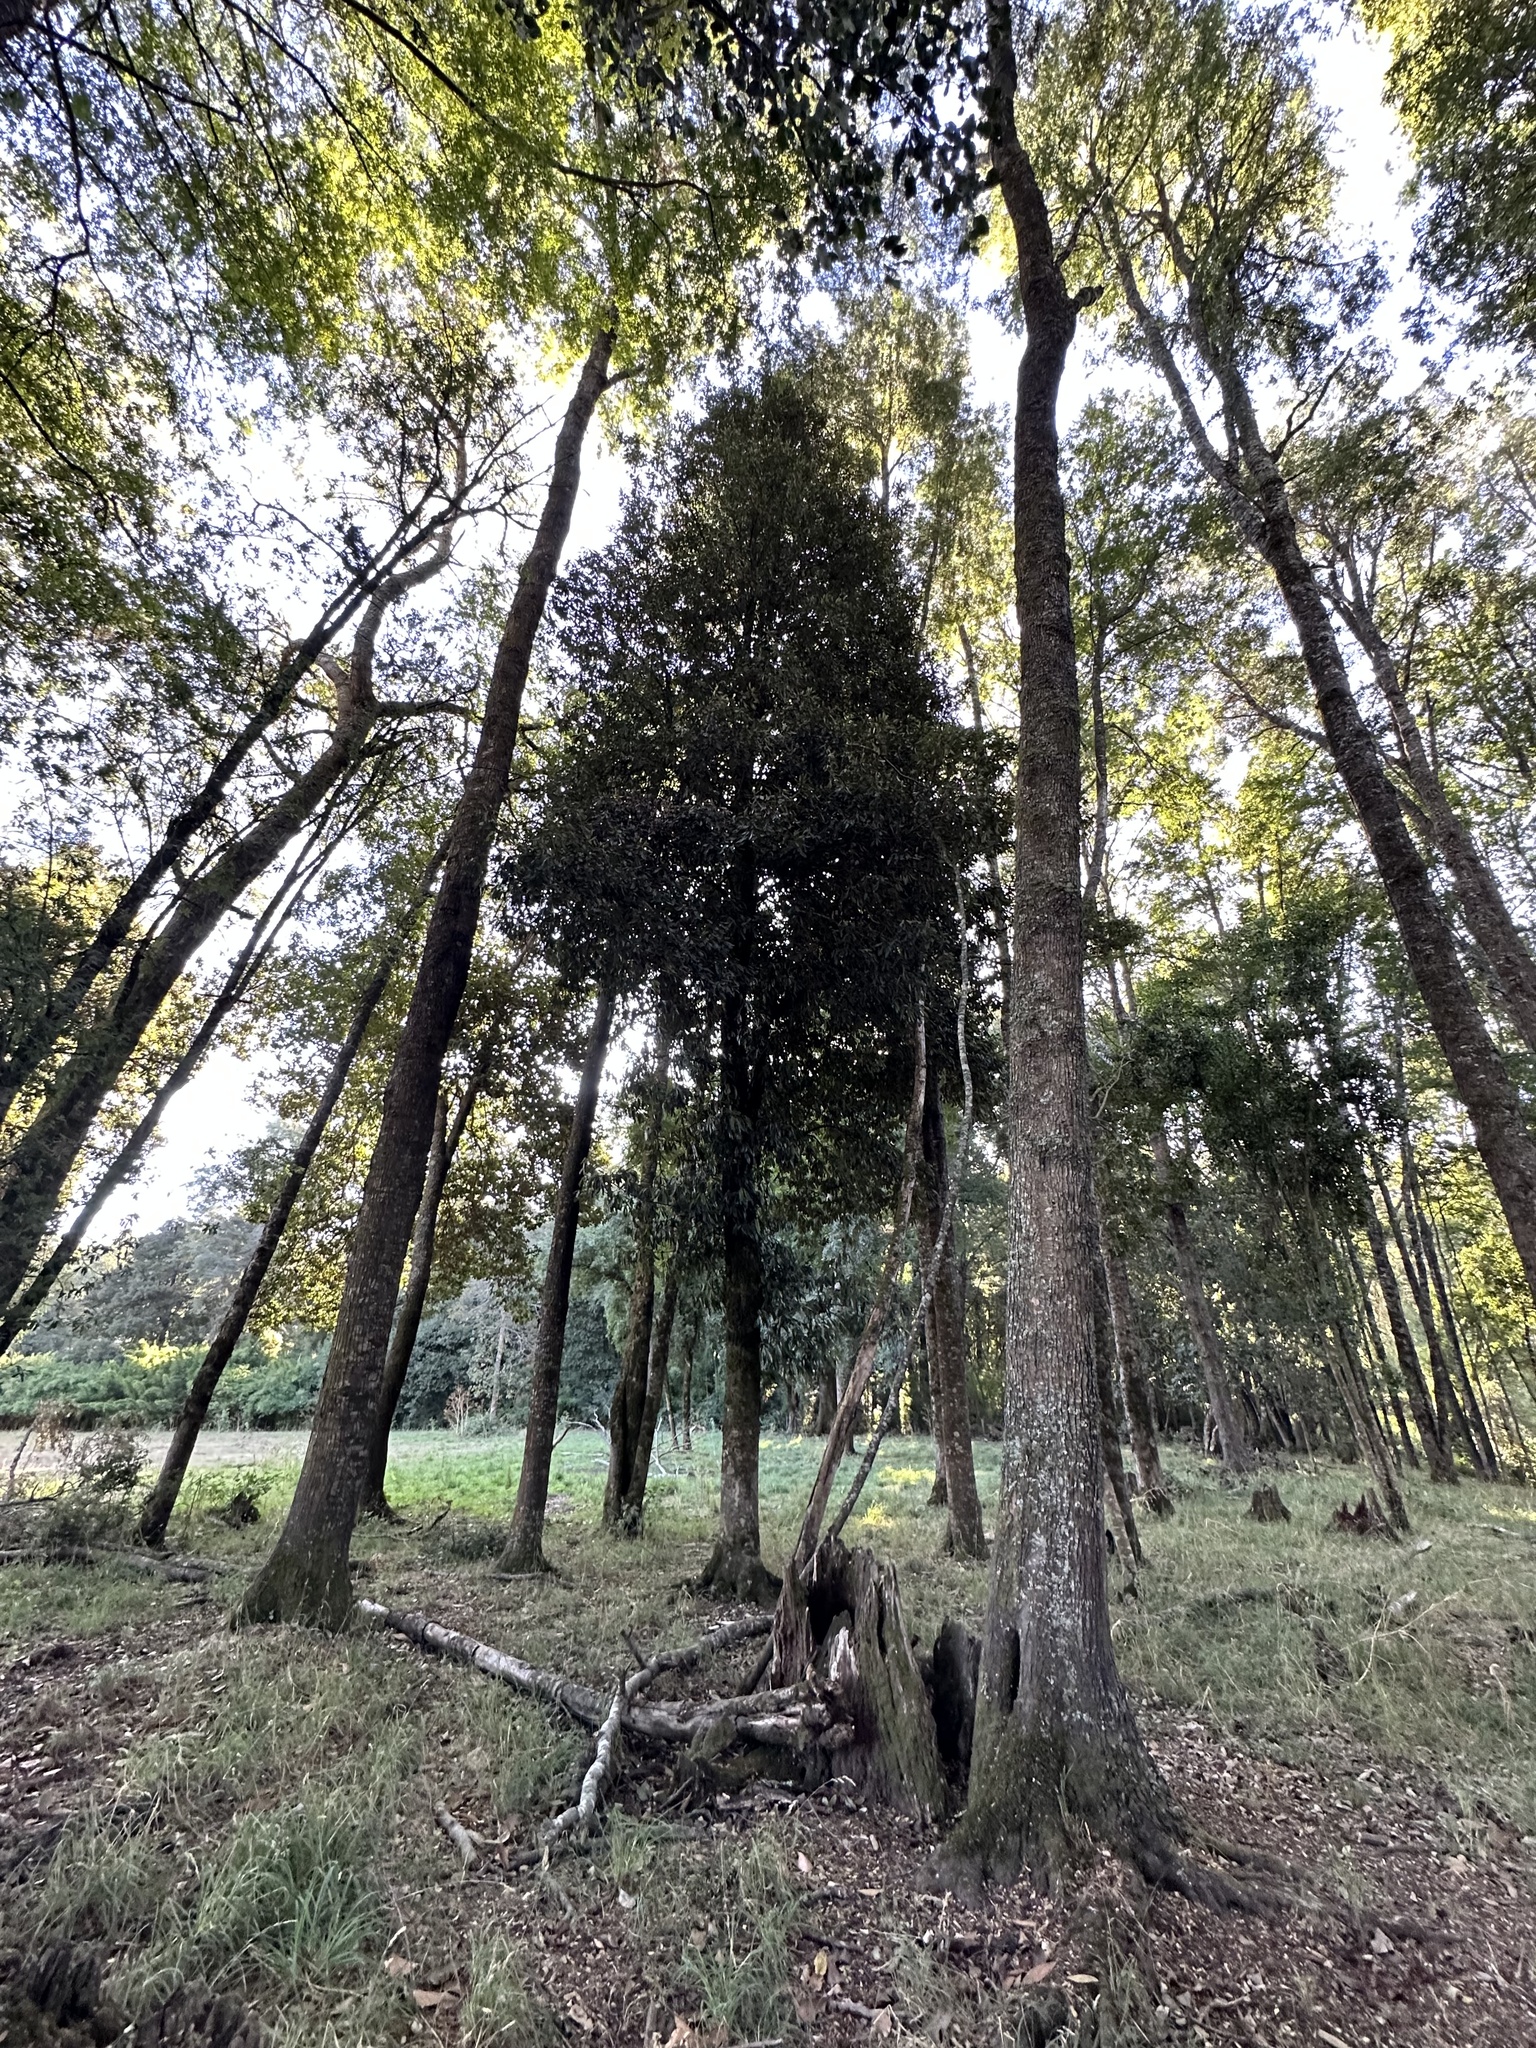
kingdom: Plantae
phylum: Tracheophyta
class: Magnoliopsida
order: Berberidopsidales
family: Aextoxicaceae
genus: Aextoxicon
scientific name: Aextoxicon punctatum
